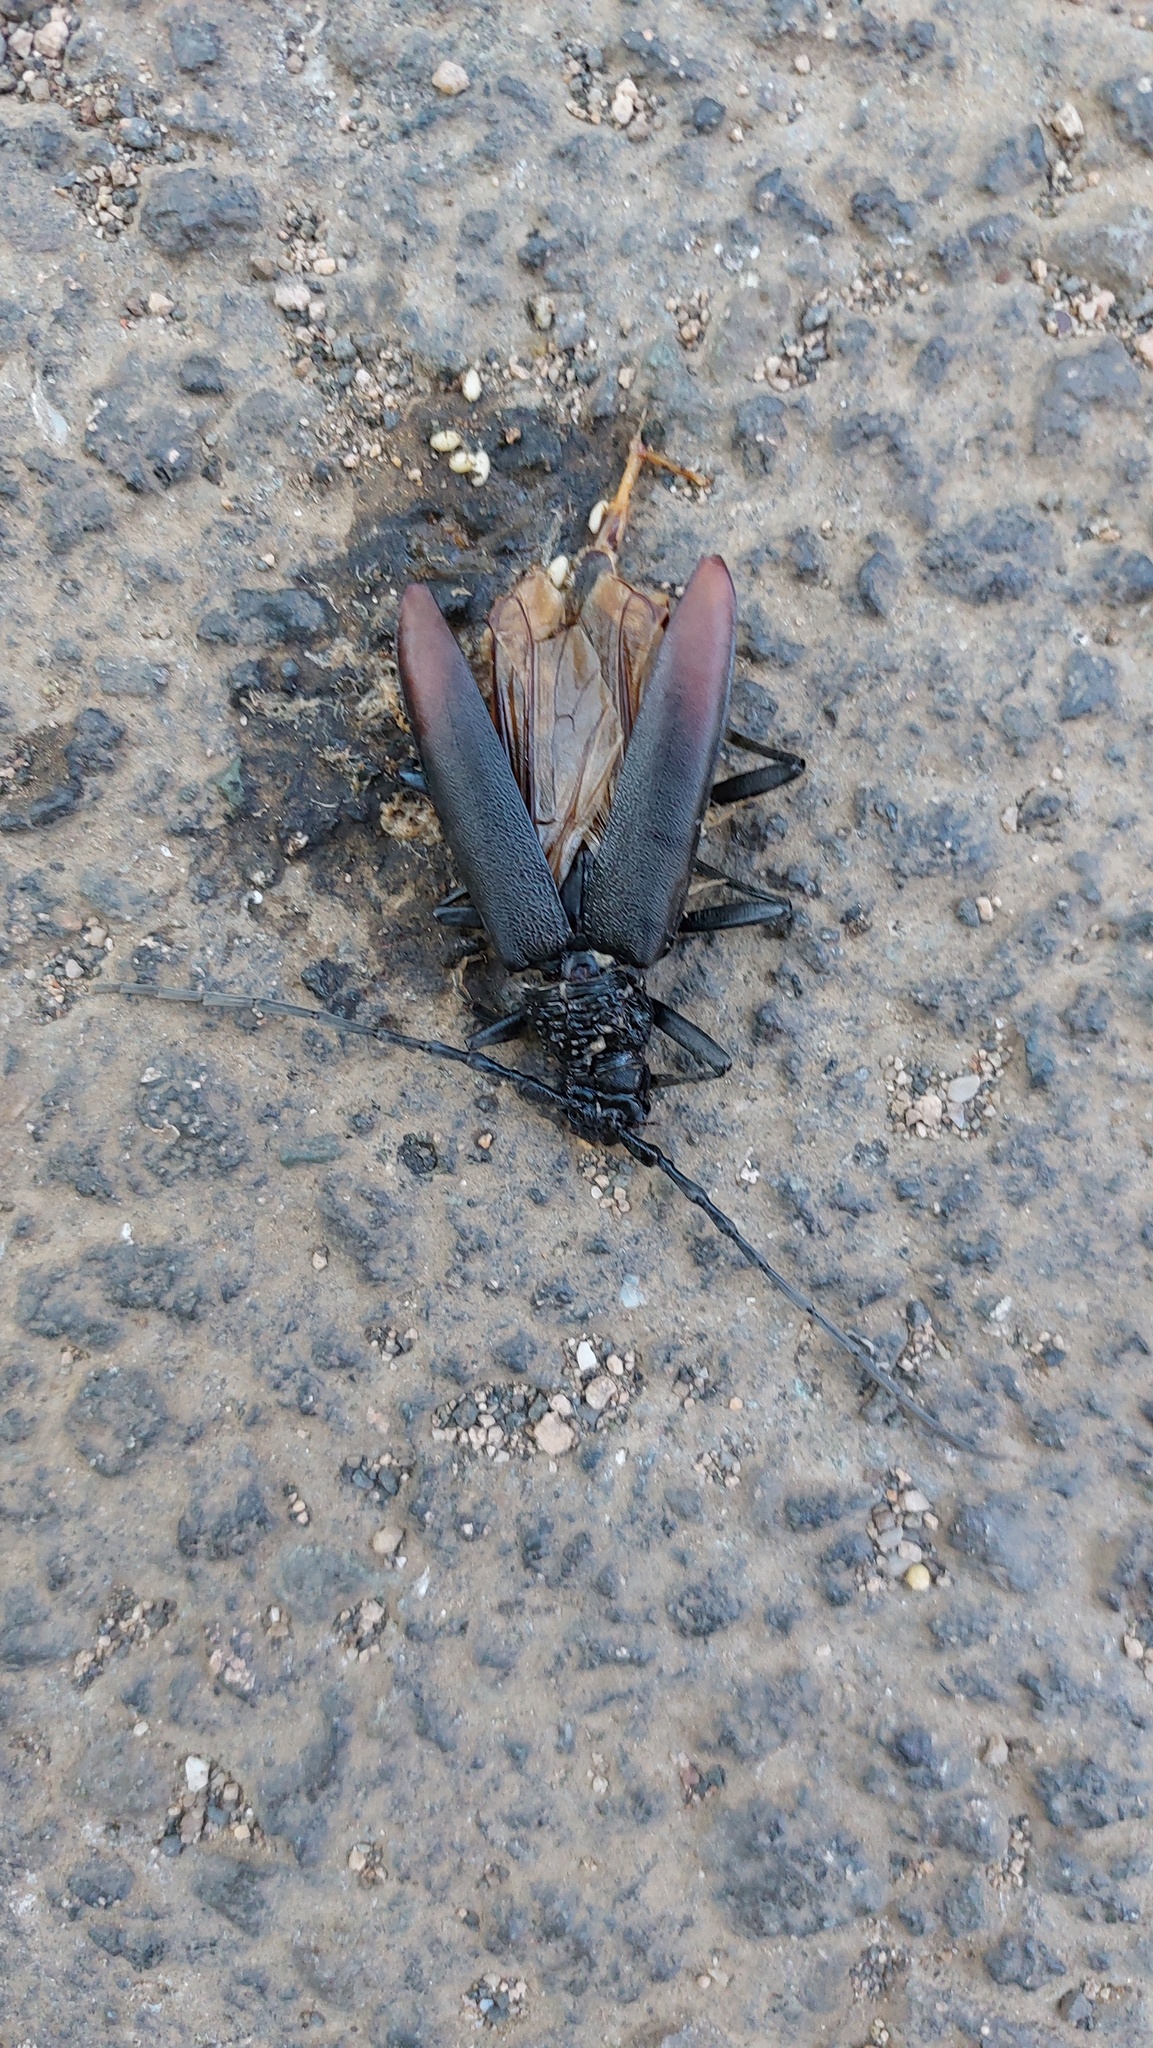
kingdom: Animalia
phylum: Arthropoda
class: Insecta
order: Coleoptera
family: Cerambycidae
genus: Cerambyx
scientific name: Cerambyx cerdo
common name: Cerambyx longicorn
